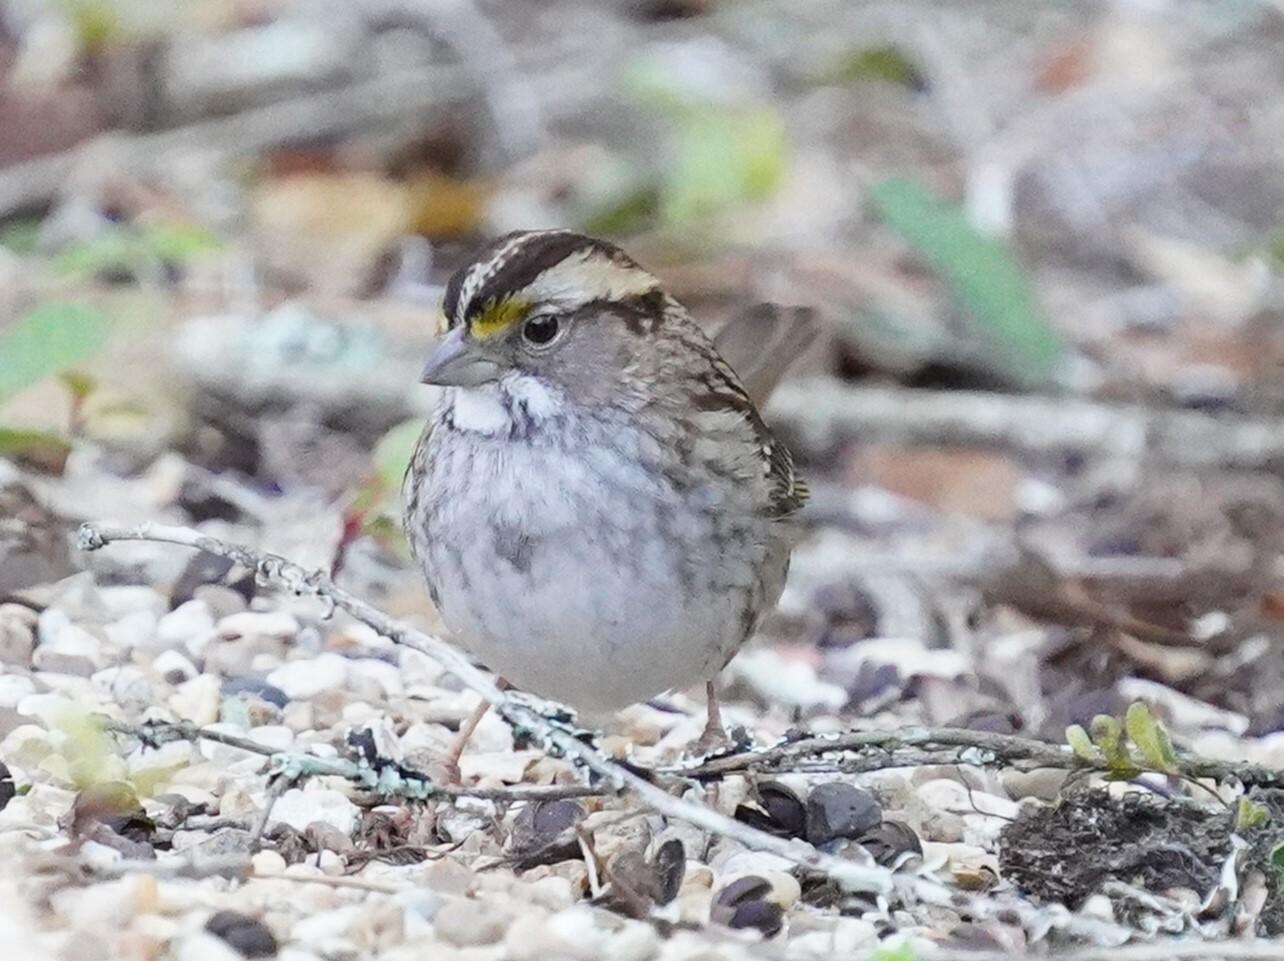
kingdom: Animalia
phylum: Chordata
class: Aves
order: Passeriformes
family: Passerellidae
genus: Zonotrichia
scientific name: Zonotrichia albicollis
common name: White-throated sparrow
